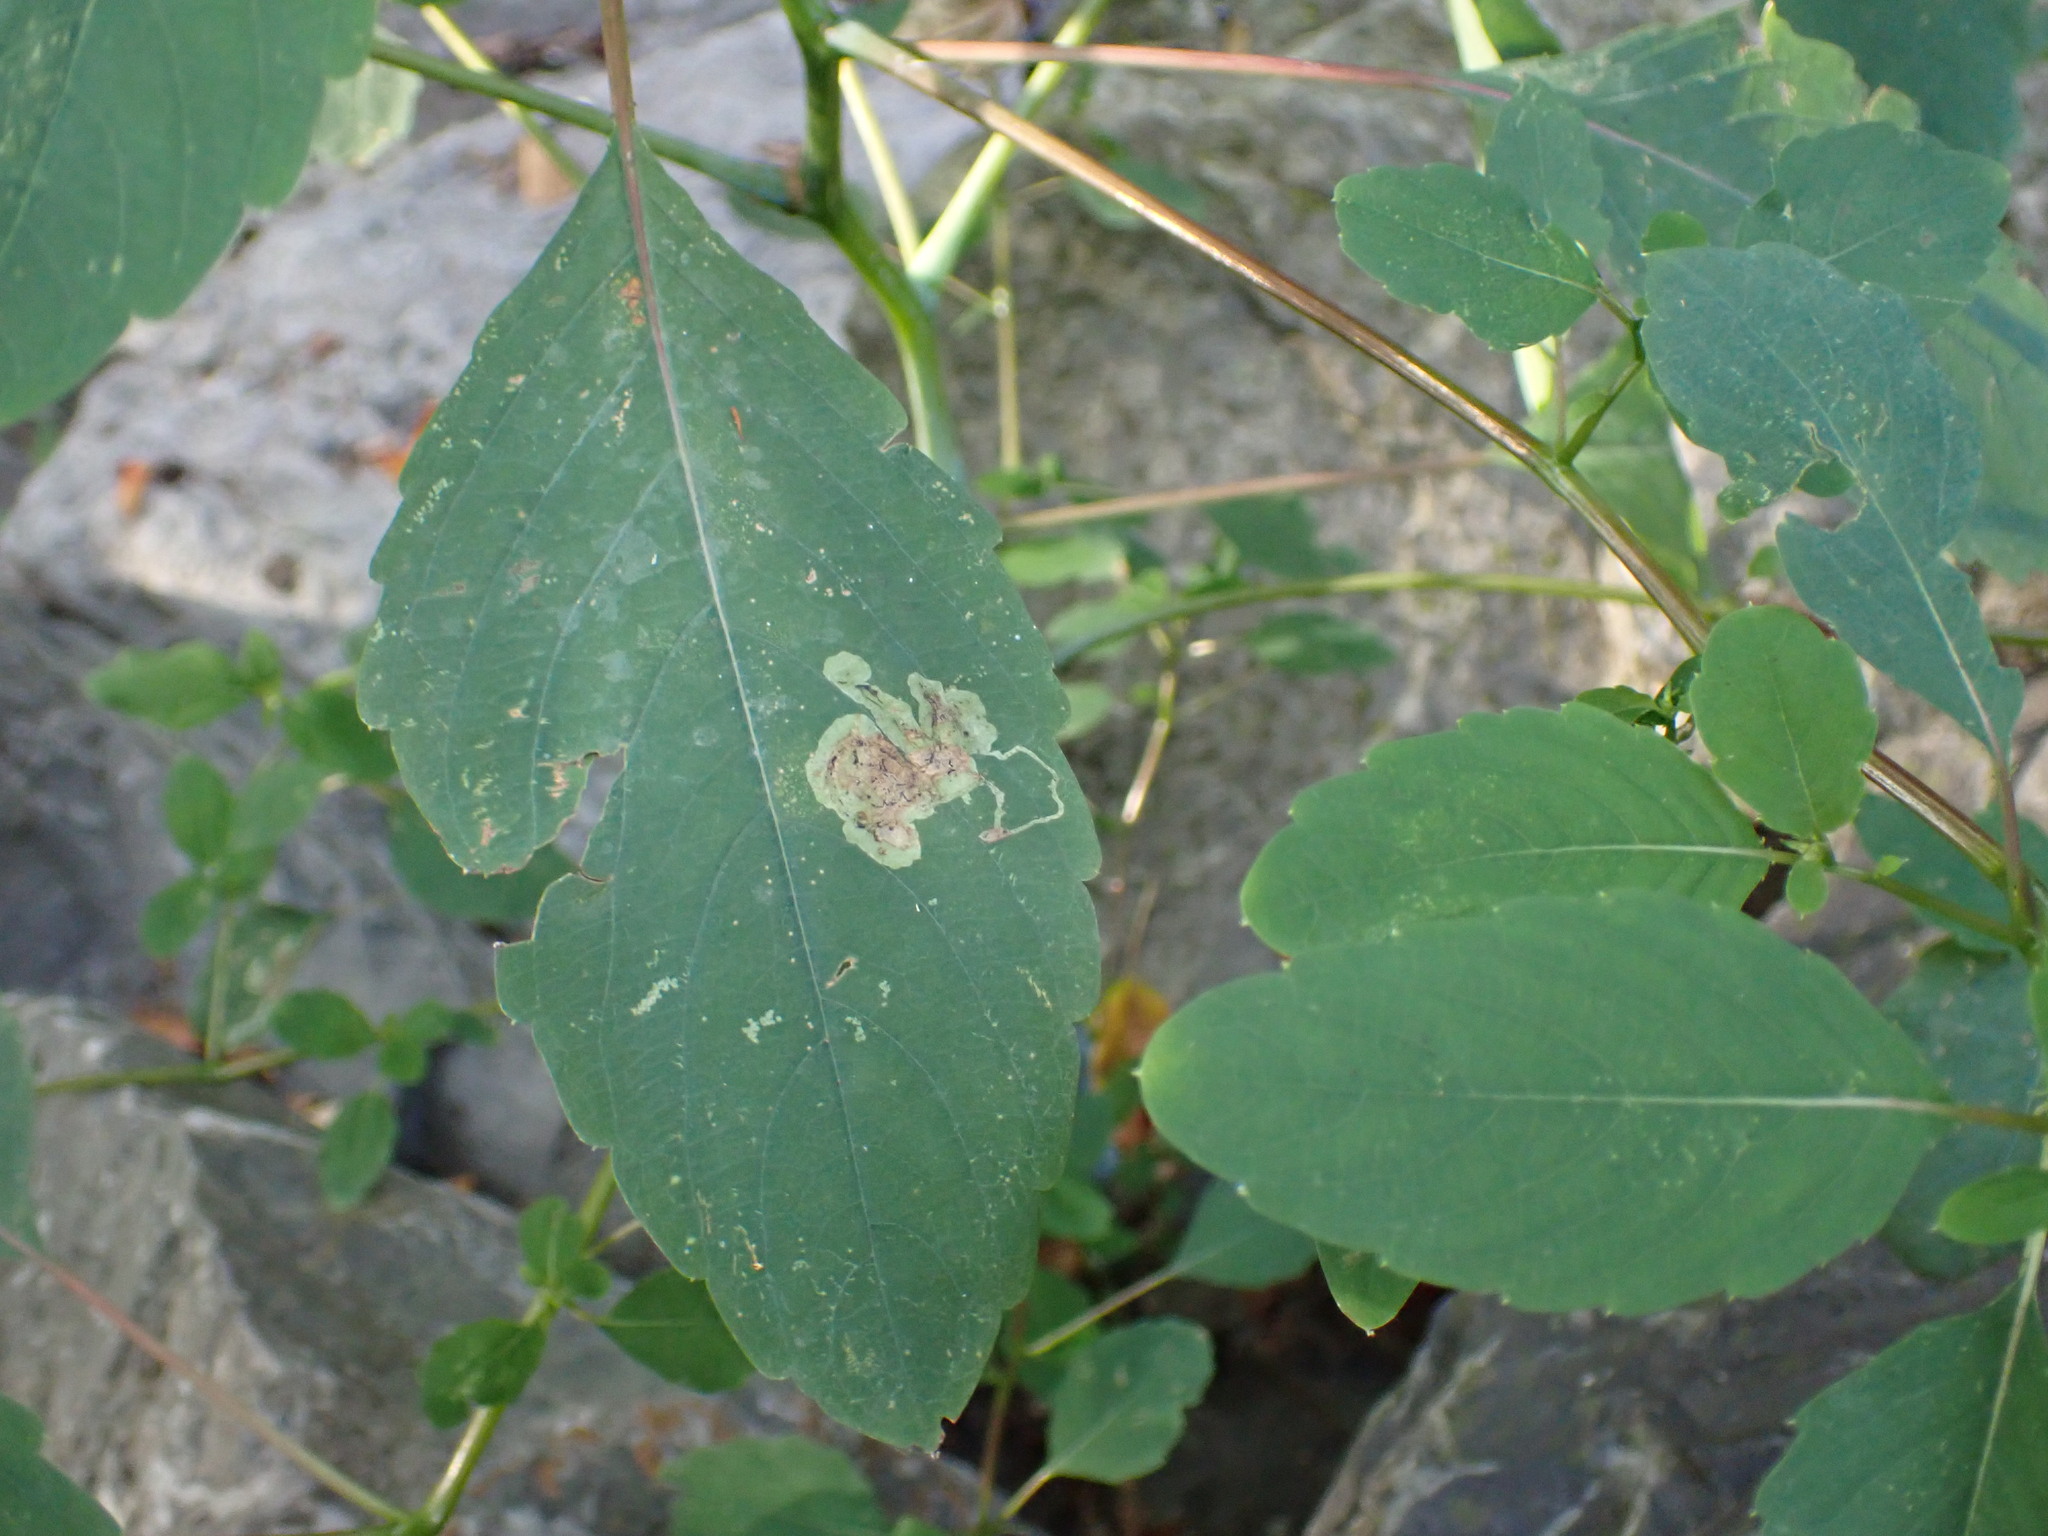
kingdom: Animalia
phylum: Arthropoda
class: Insecta
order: Diptera
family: Agromyzidae
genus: Phytoliriomyza
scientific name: Phytoliriomyza melampyga
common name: Jewelweed leaf-miner fly
